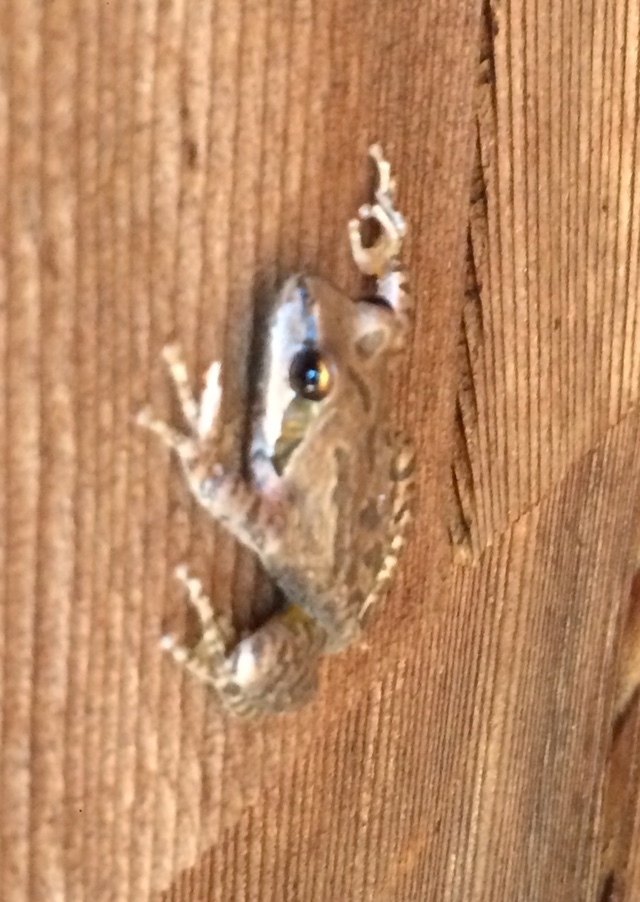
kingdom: Animalia
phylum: Chordata
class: Amphibia
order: Anura
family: Hylidae
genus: Pseudacris
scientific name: Pseudacris regilla
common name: Pacific chorus frog
